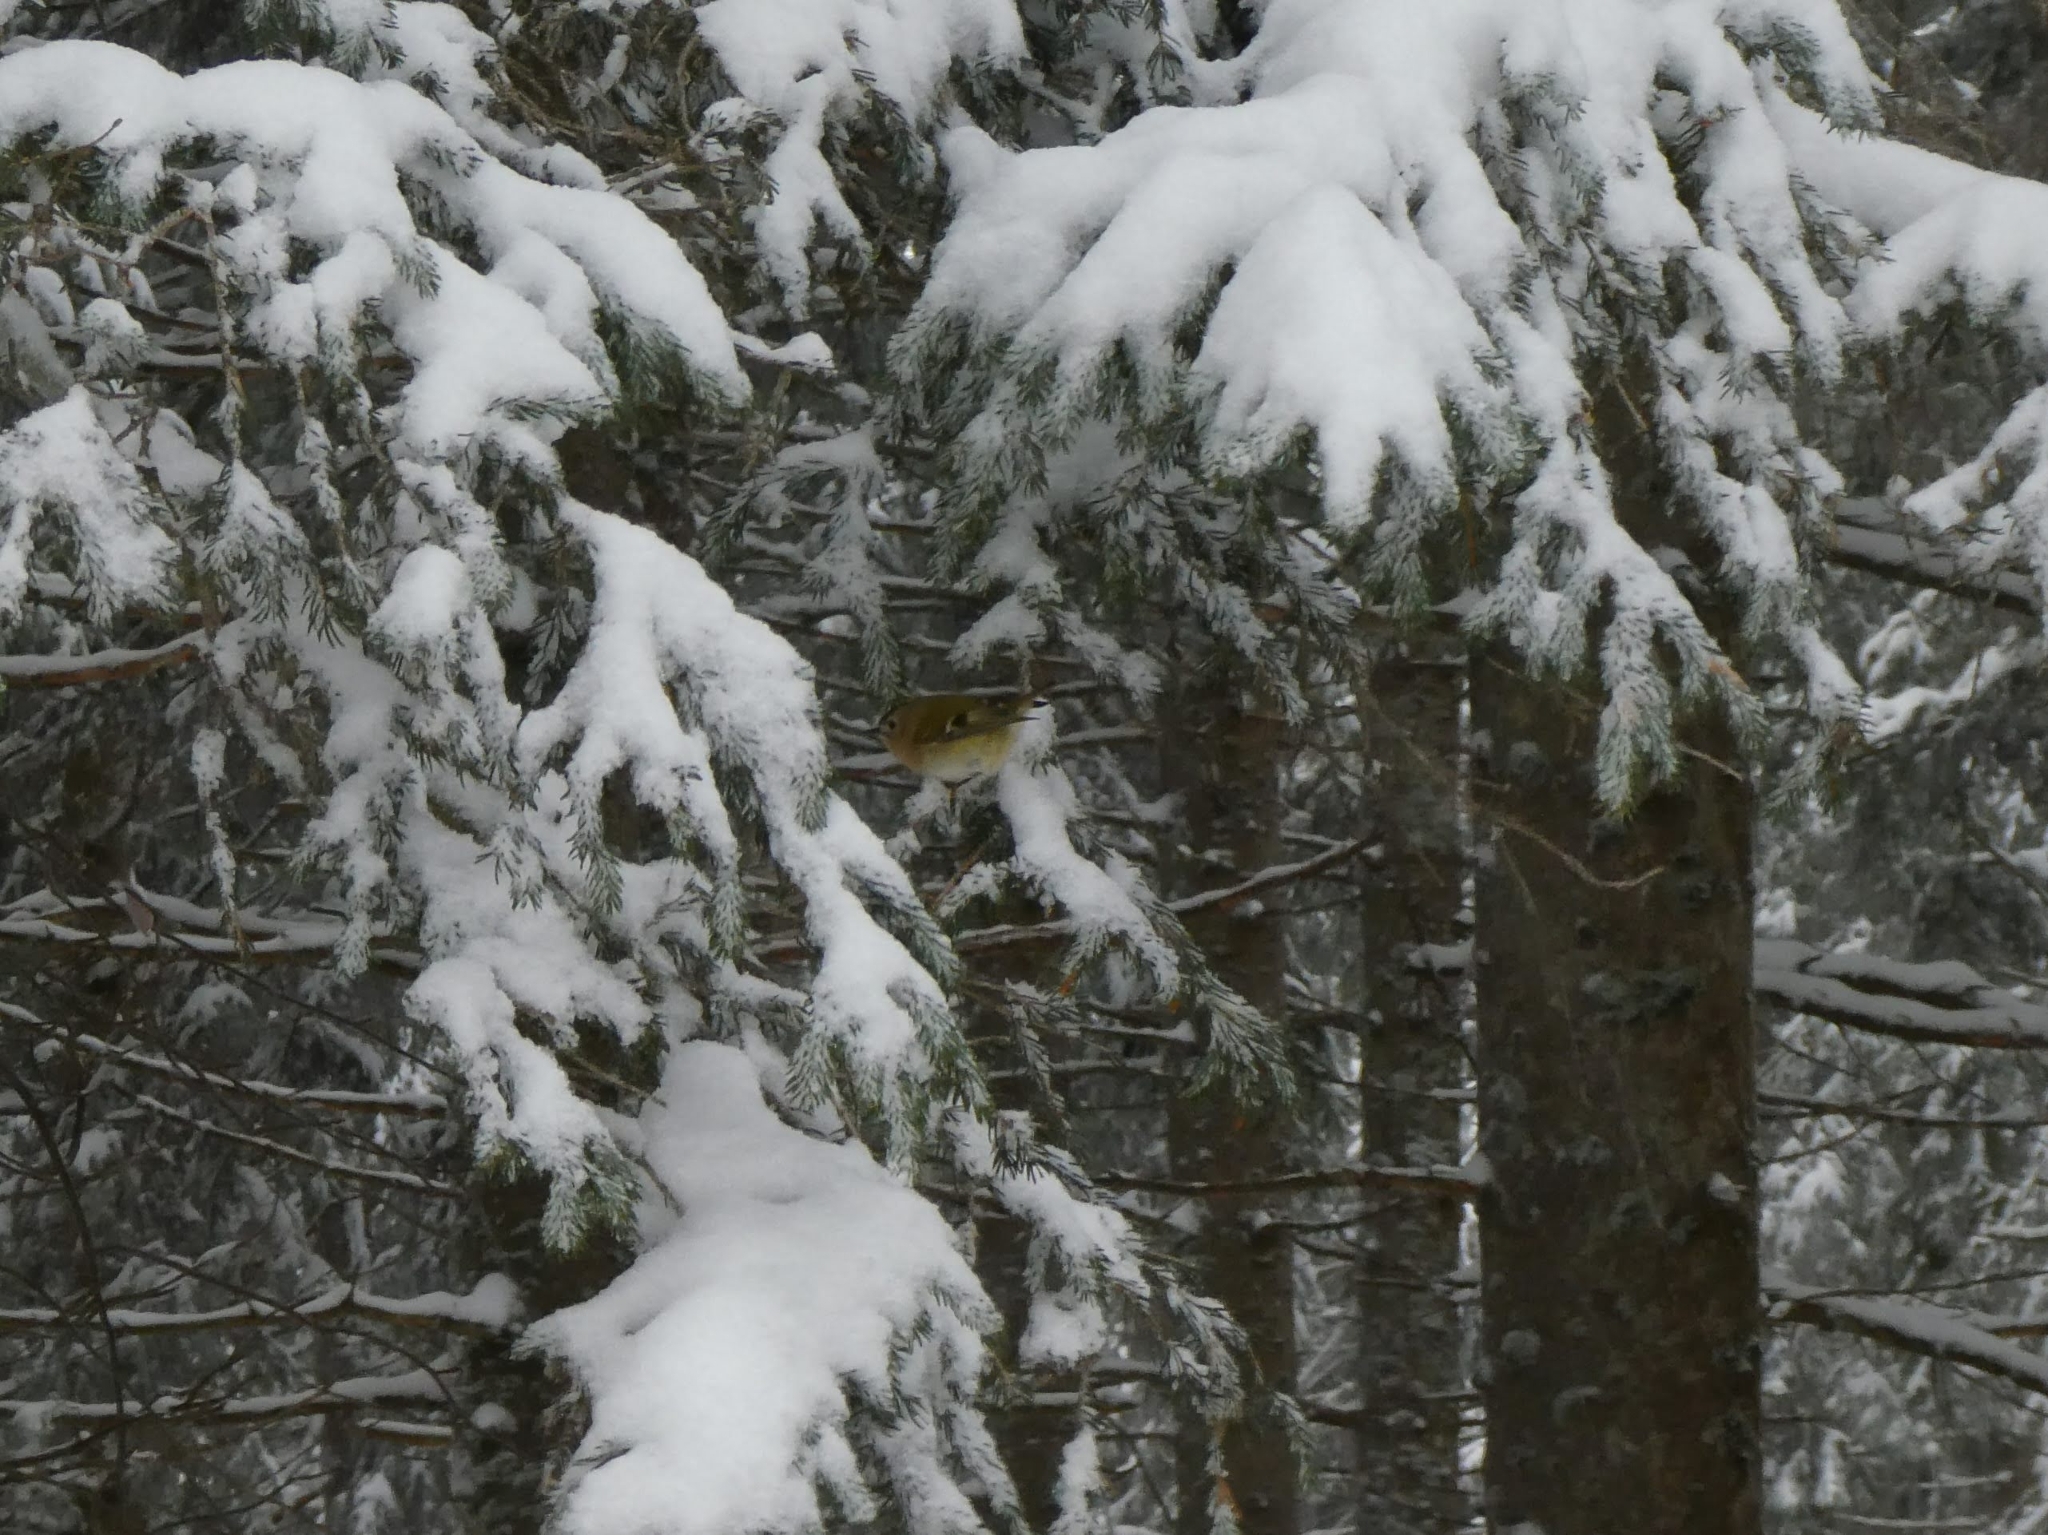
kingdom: Animalia
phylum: Chordata
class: Aves
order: Passeriformes
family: Regulidae
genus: Regulus
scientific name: Regulus regulus
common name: Goldcrest
